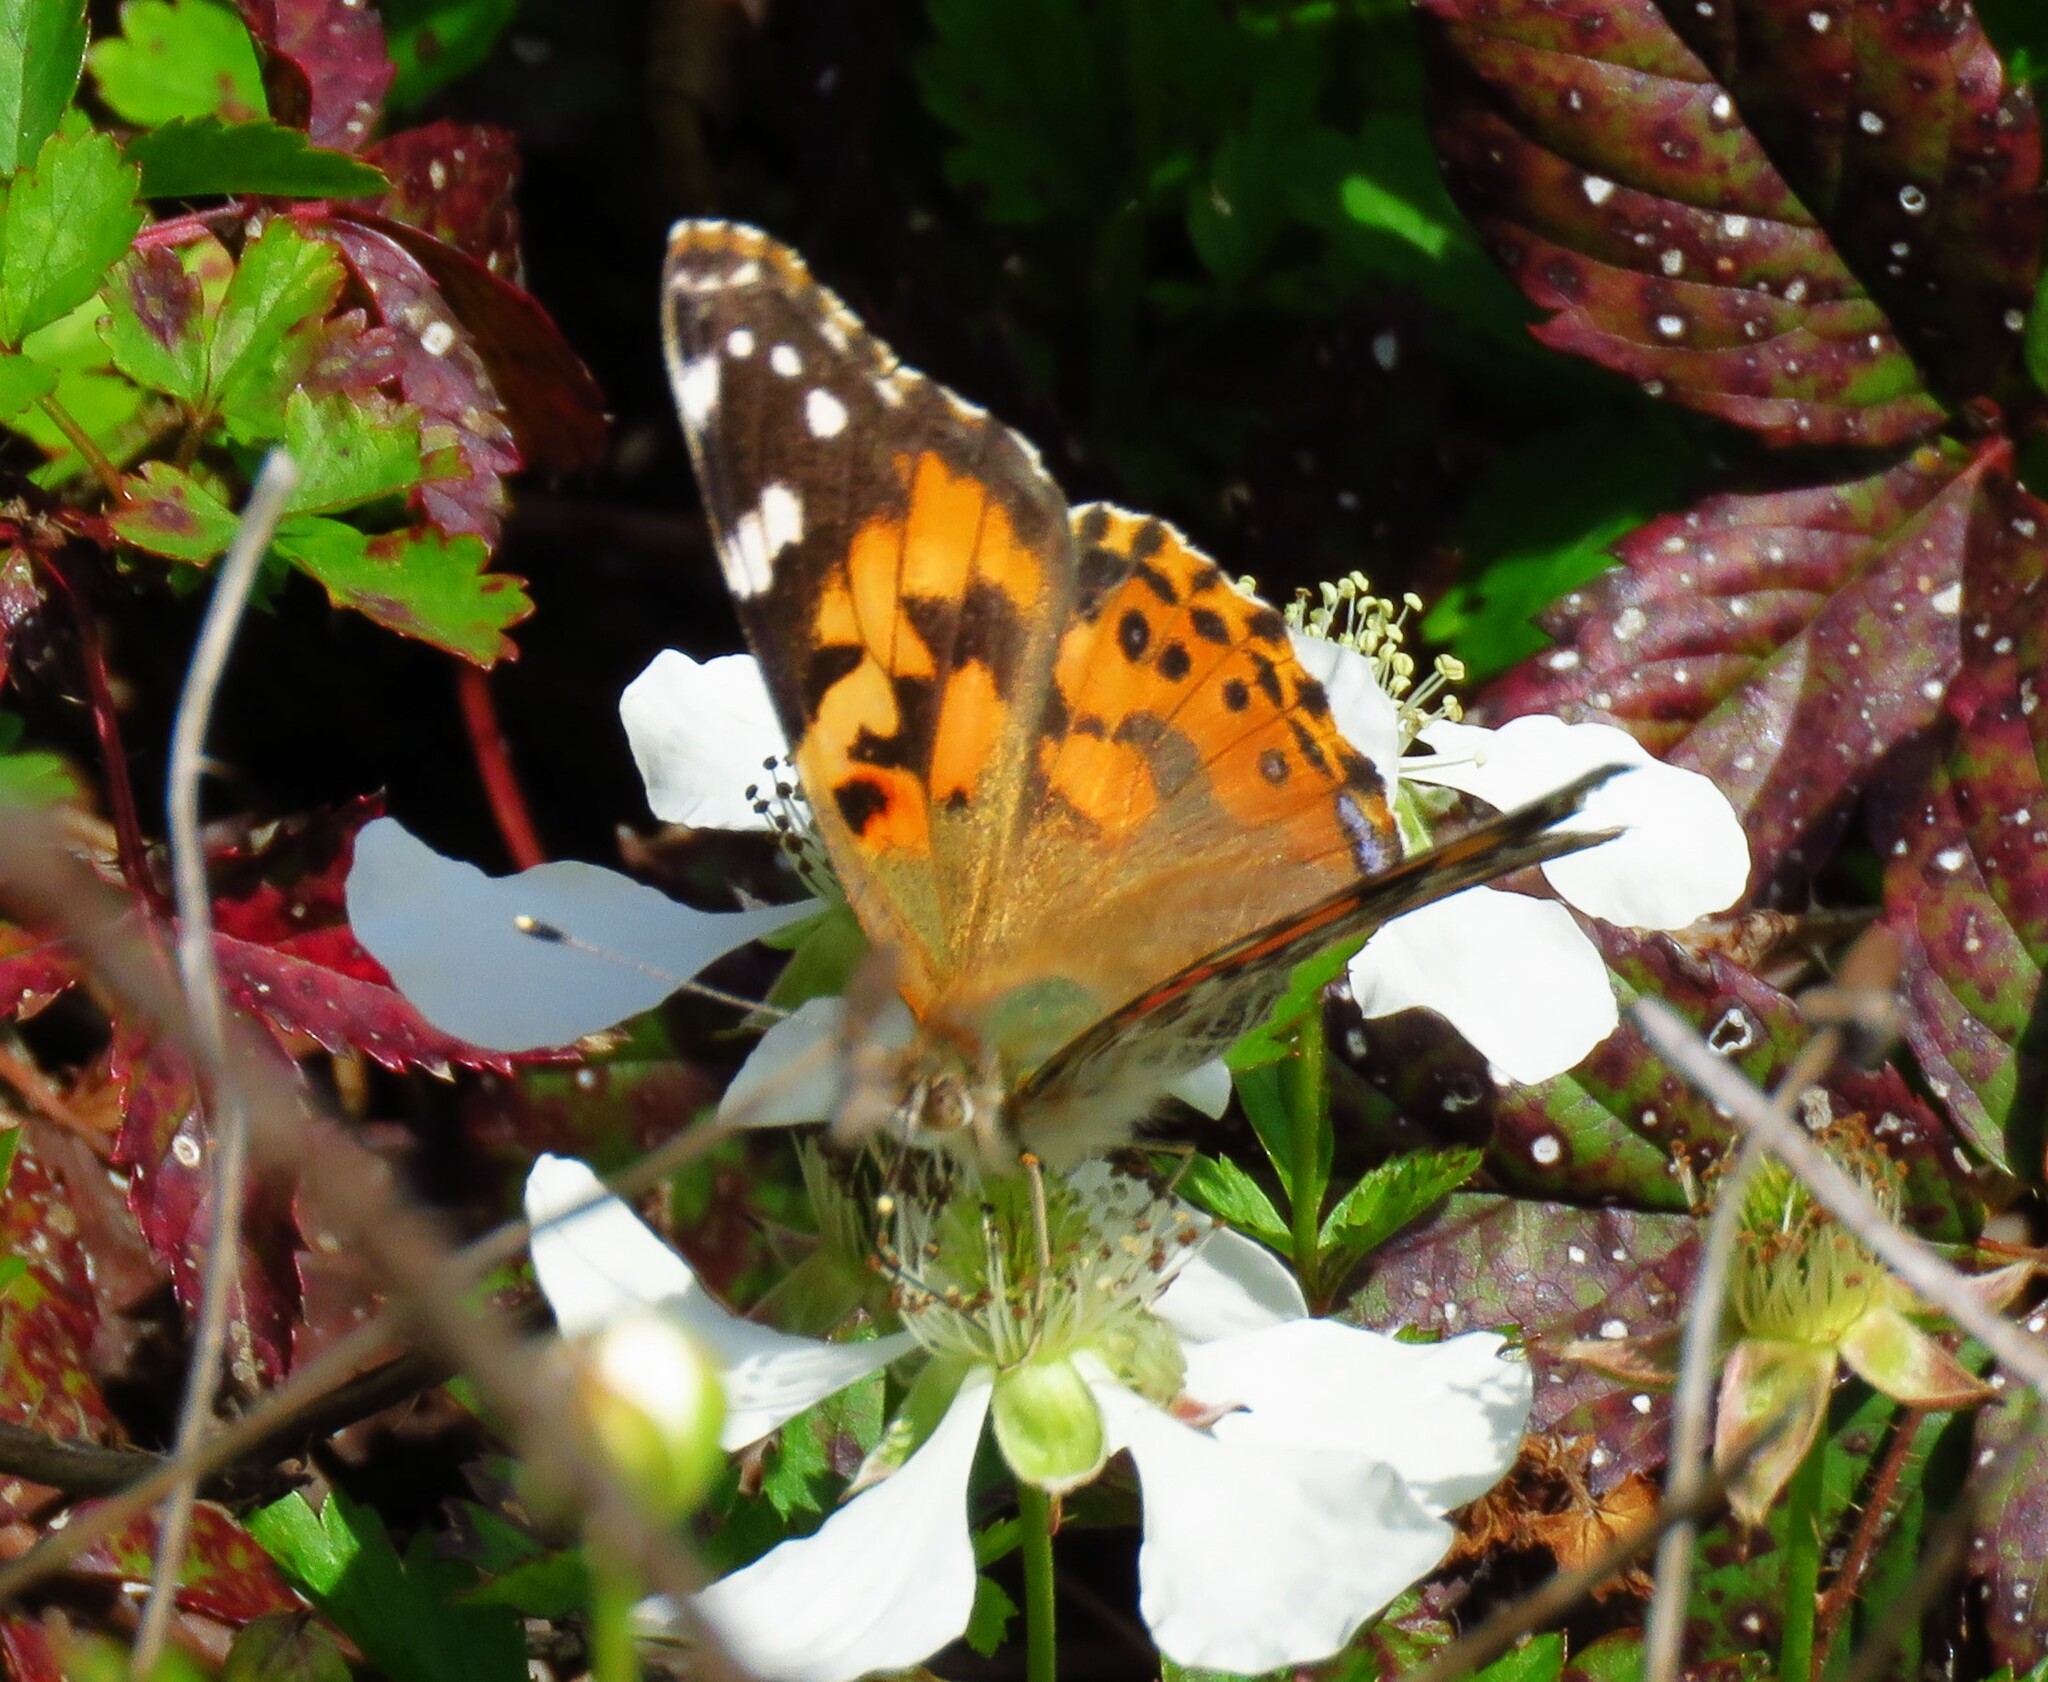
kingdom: Animalia
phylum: Arthropoda
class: Insecta
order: Lepidoptera
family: Nymphalidae
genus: Vanessa
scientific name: Vanessa cardui
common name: Painted lady
